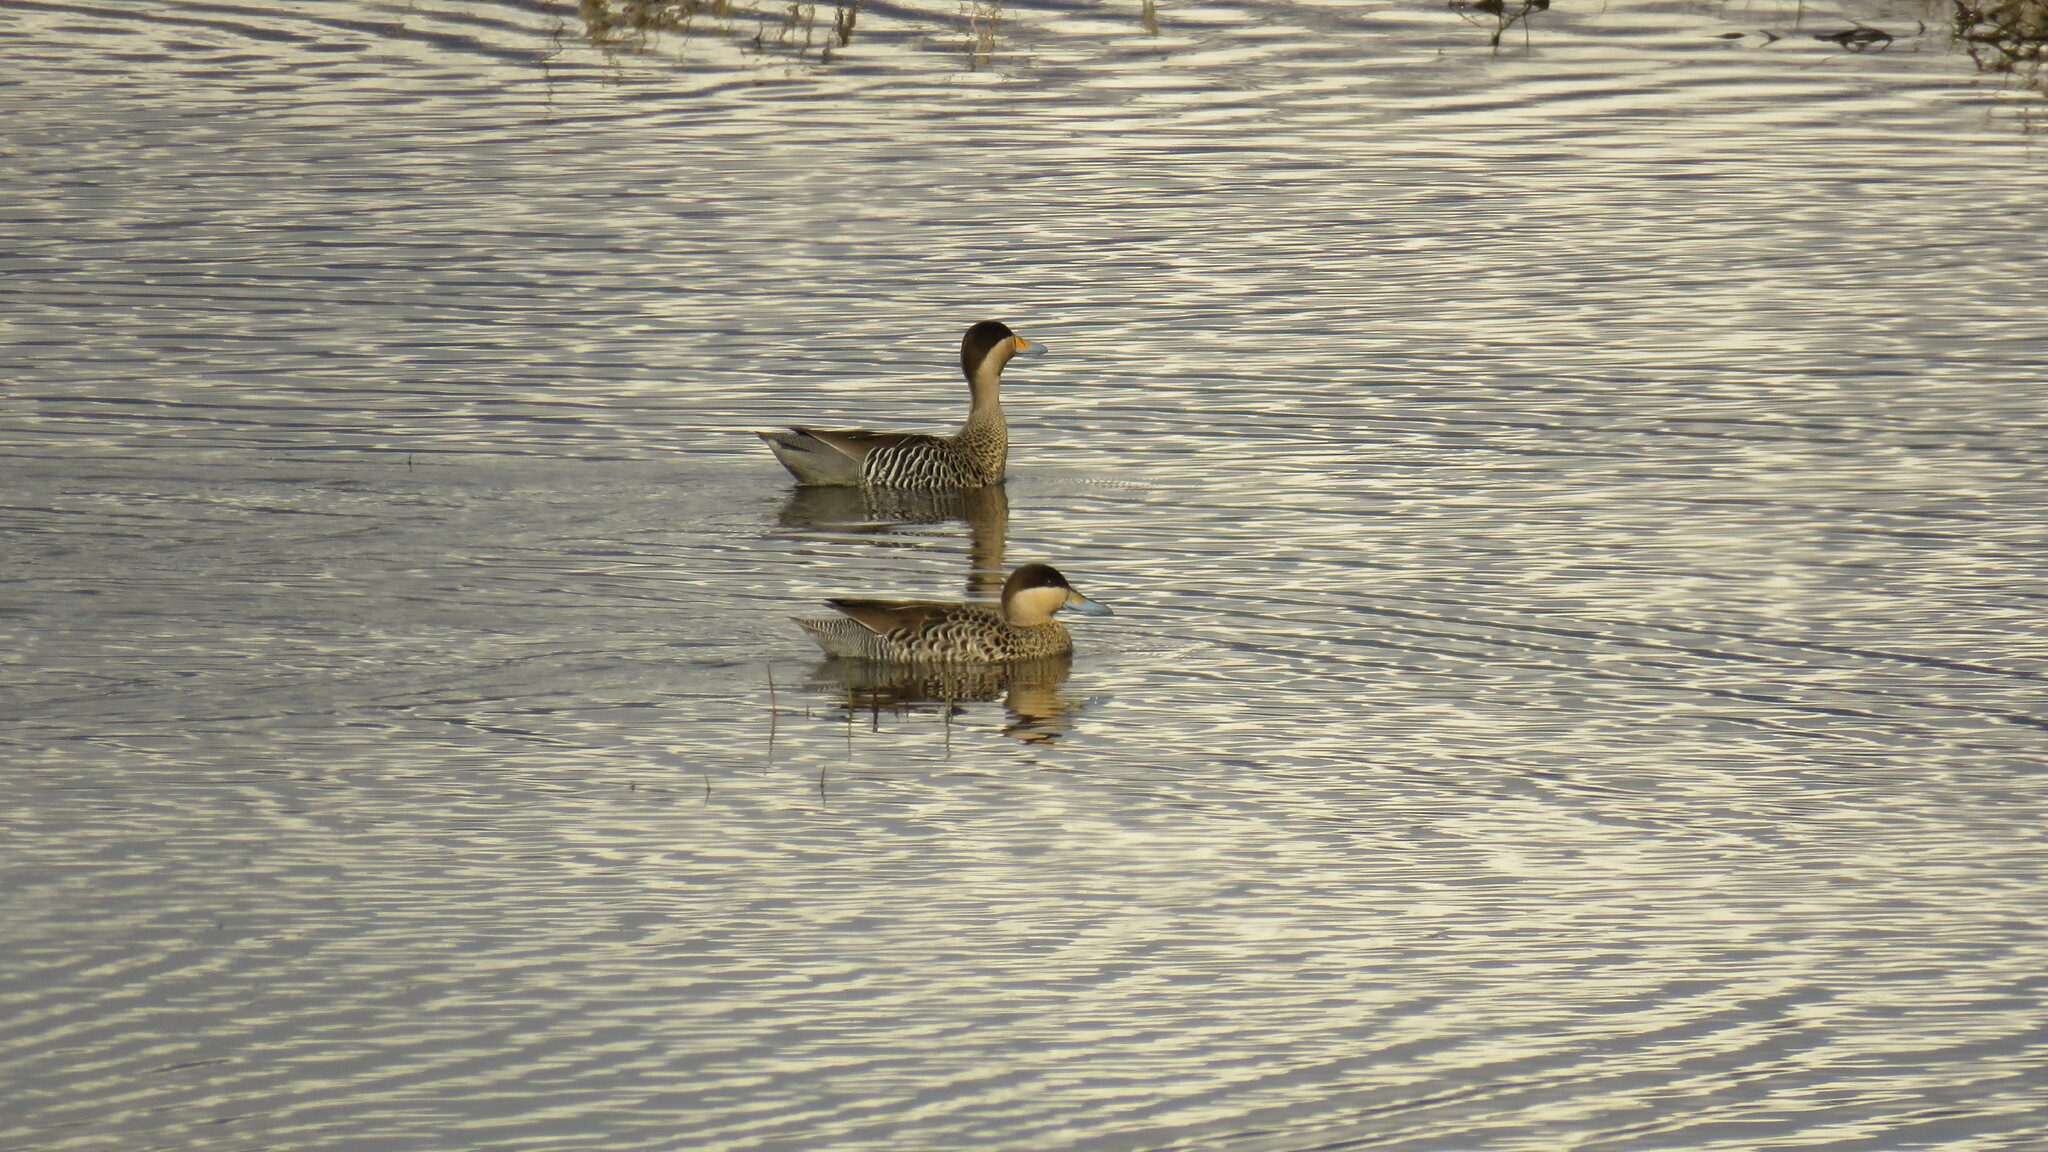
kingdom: Animalia
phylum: Chordata
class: Aves
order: Anseriformes
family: Anatidae
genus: Spatula
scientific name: Spatula versicolor
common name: Silver teal
